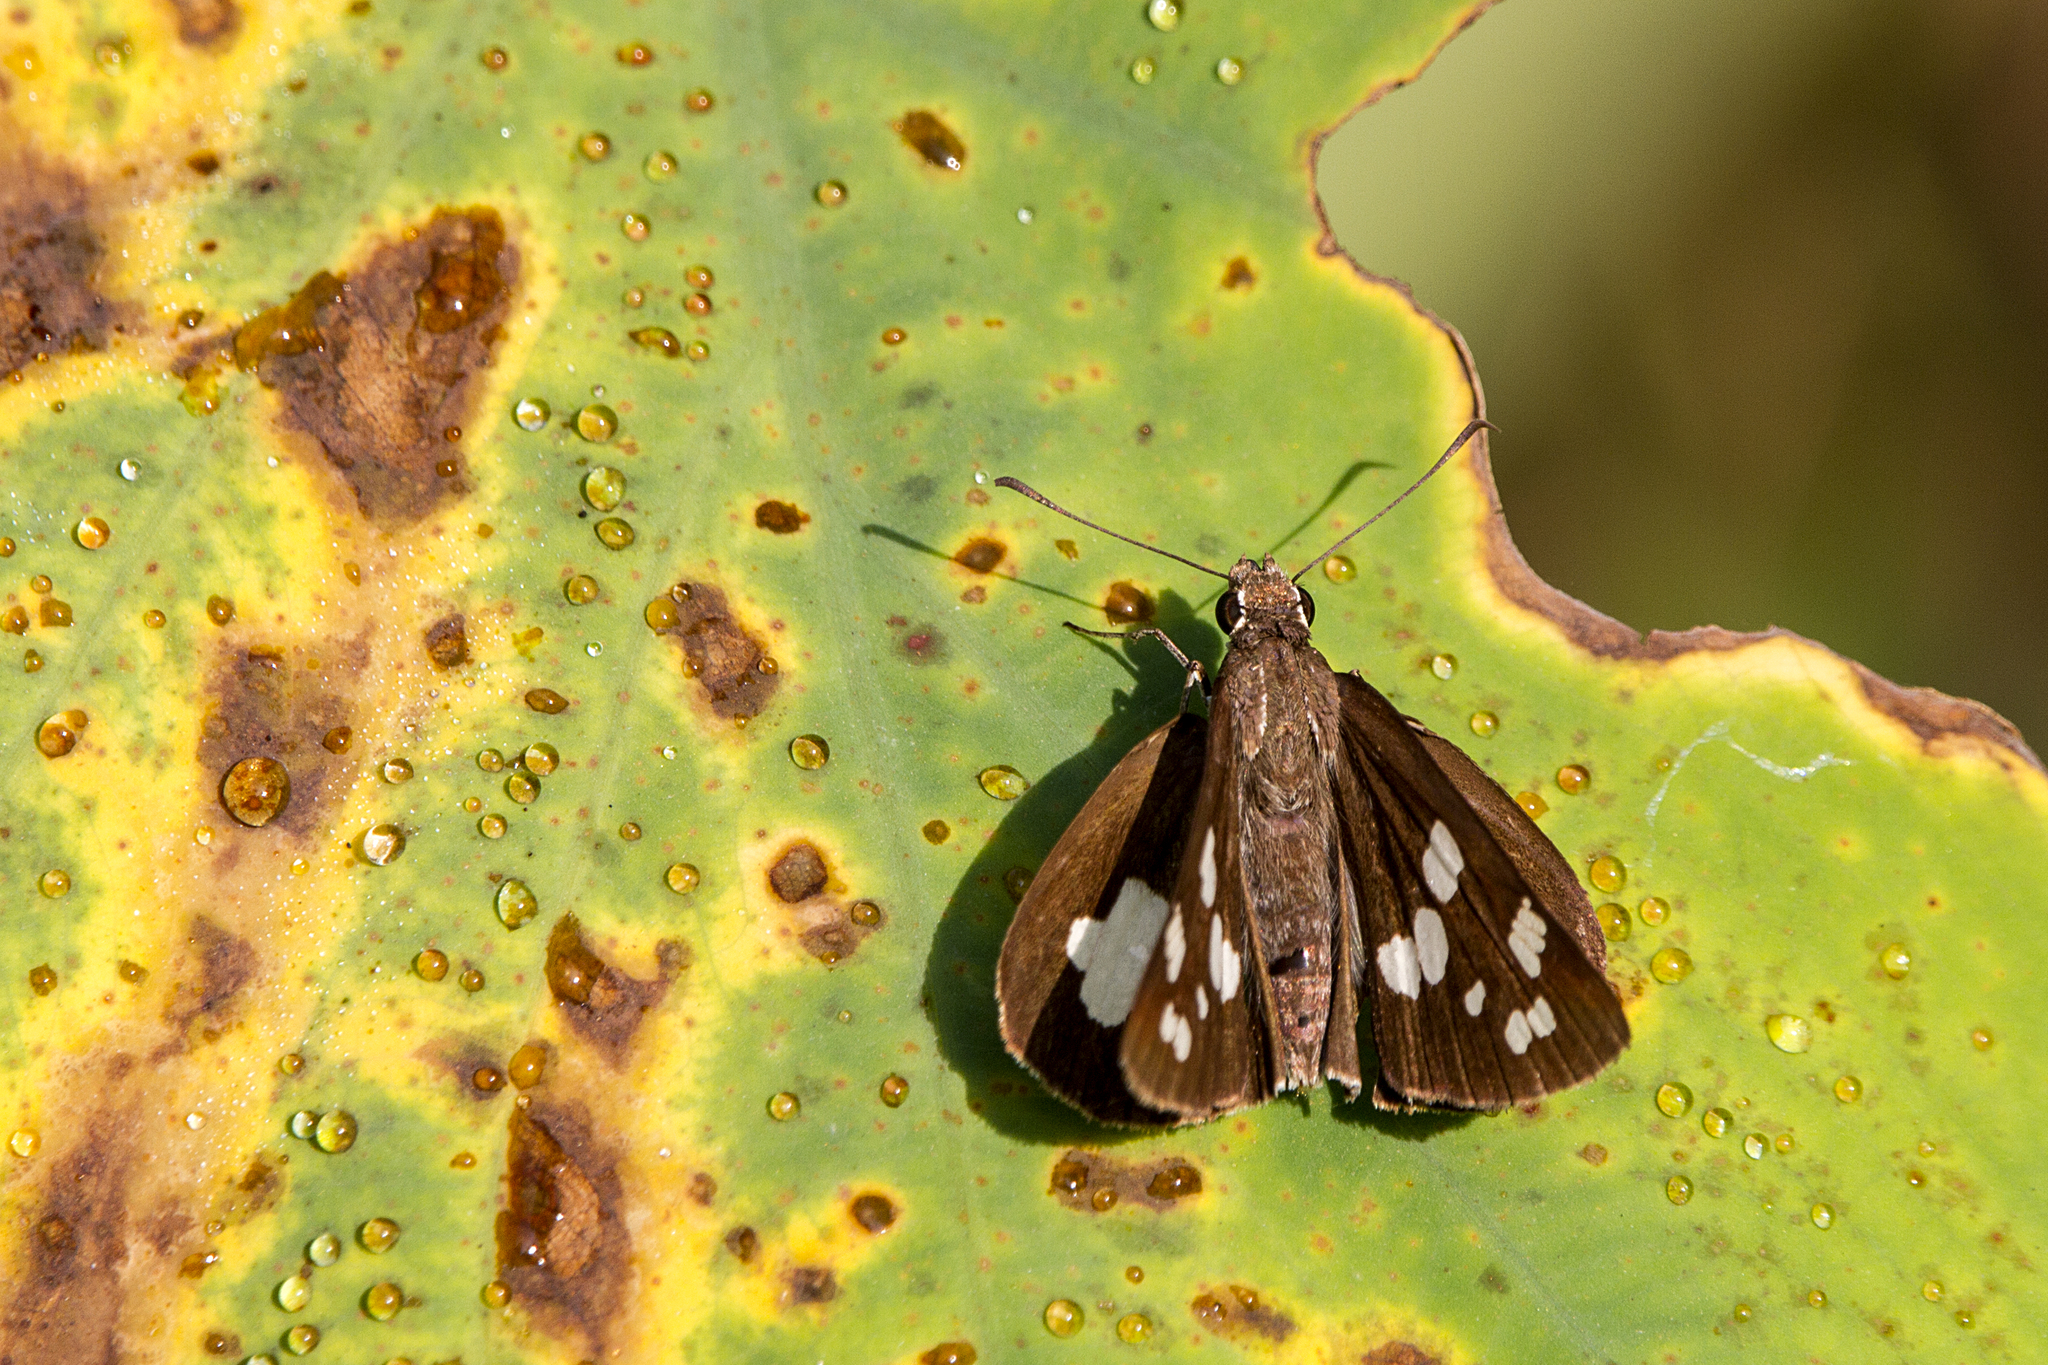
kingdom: Animalia
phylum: Arthropoda
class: Insecta
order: Lepidoptera
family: Hesperiidae
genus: Udaspes
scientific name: Udaspes folus
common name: Grass demon
